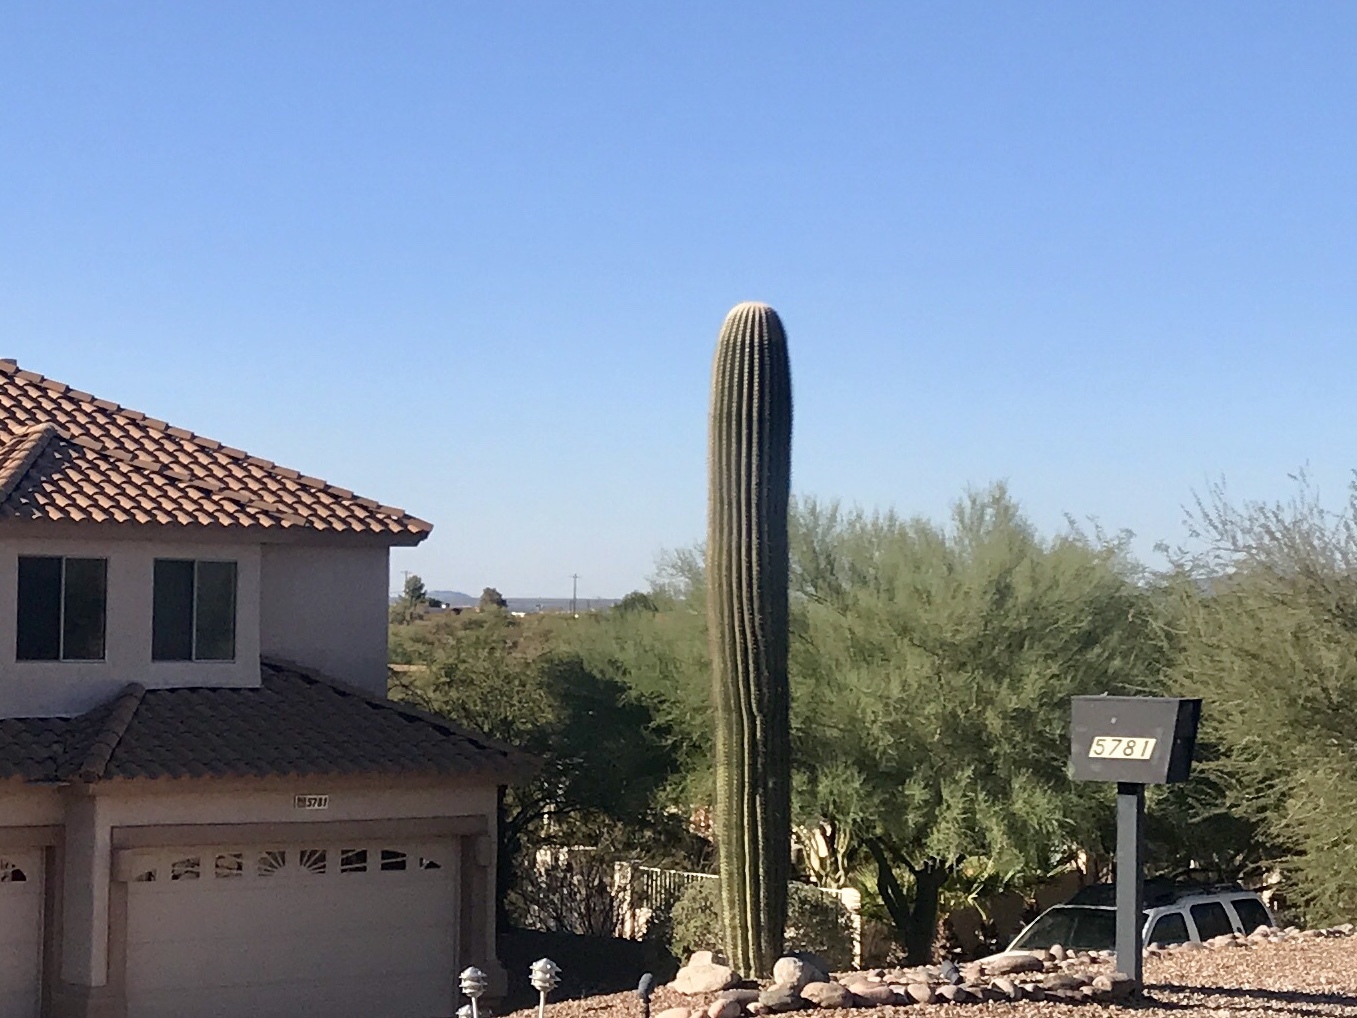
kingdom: Plantae
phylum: Tracheophyta
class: Magnoliopsida
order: Caryophyllales
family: Cactaceae
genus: Carnegiea
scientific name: Carnegiea gigantea
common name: Saguaro
